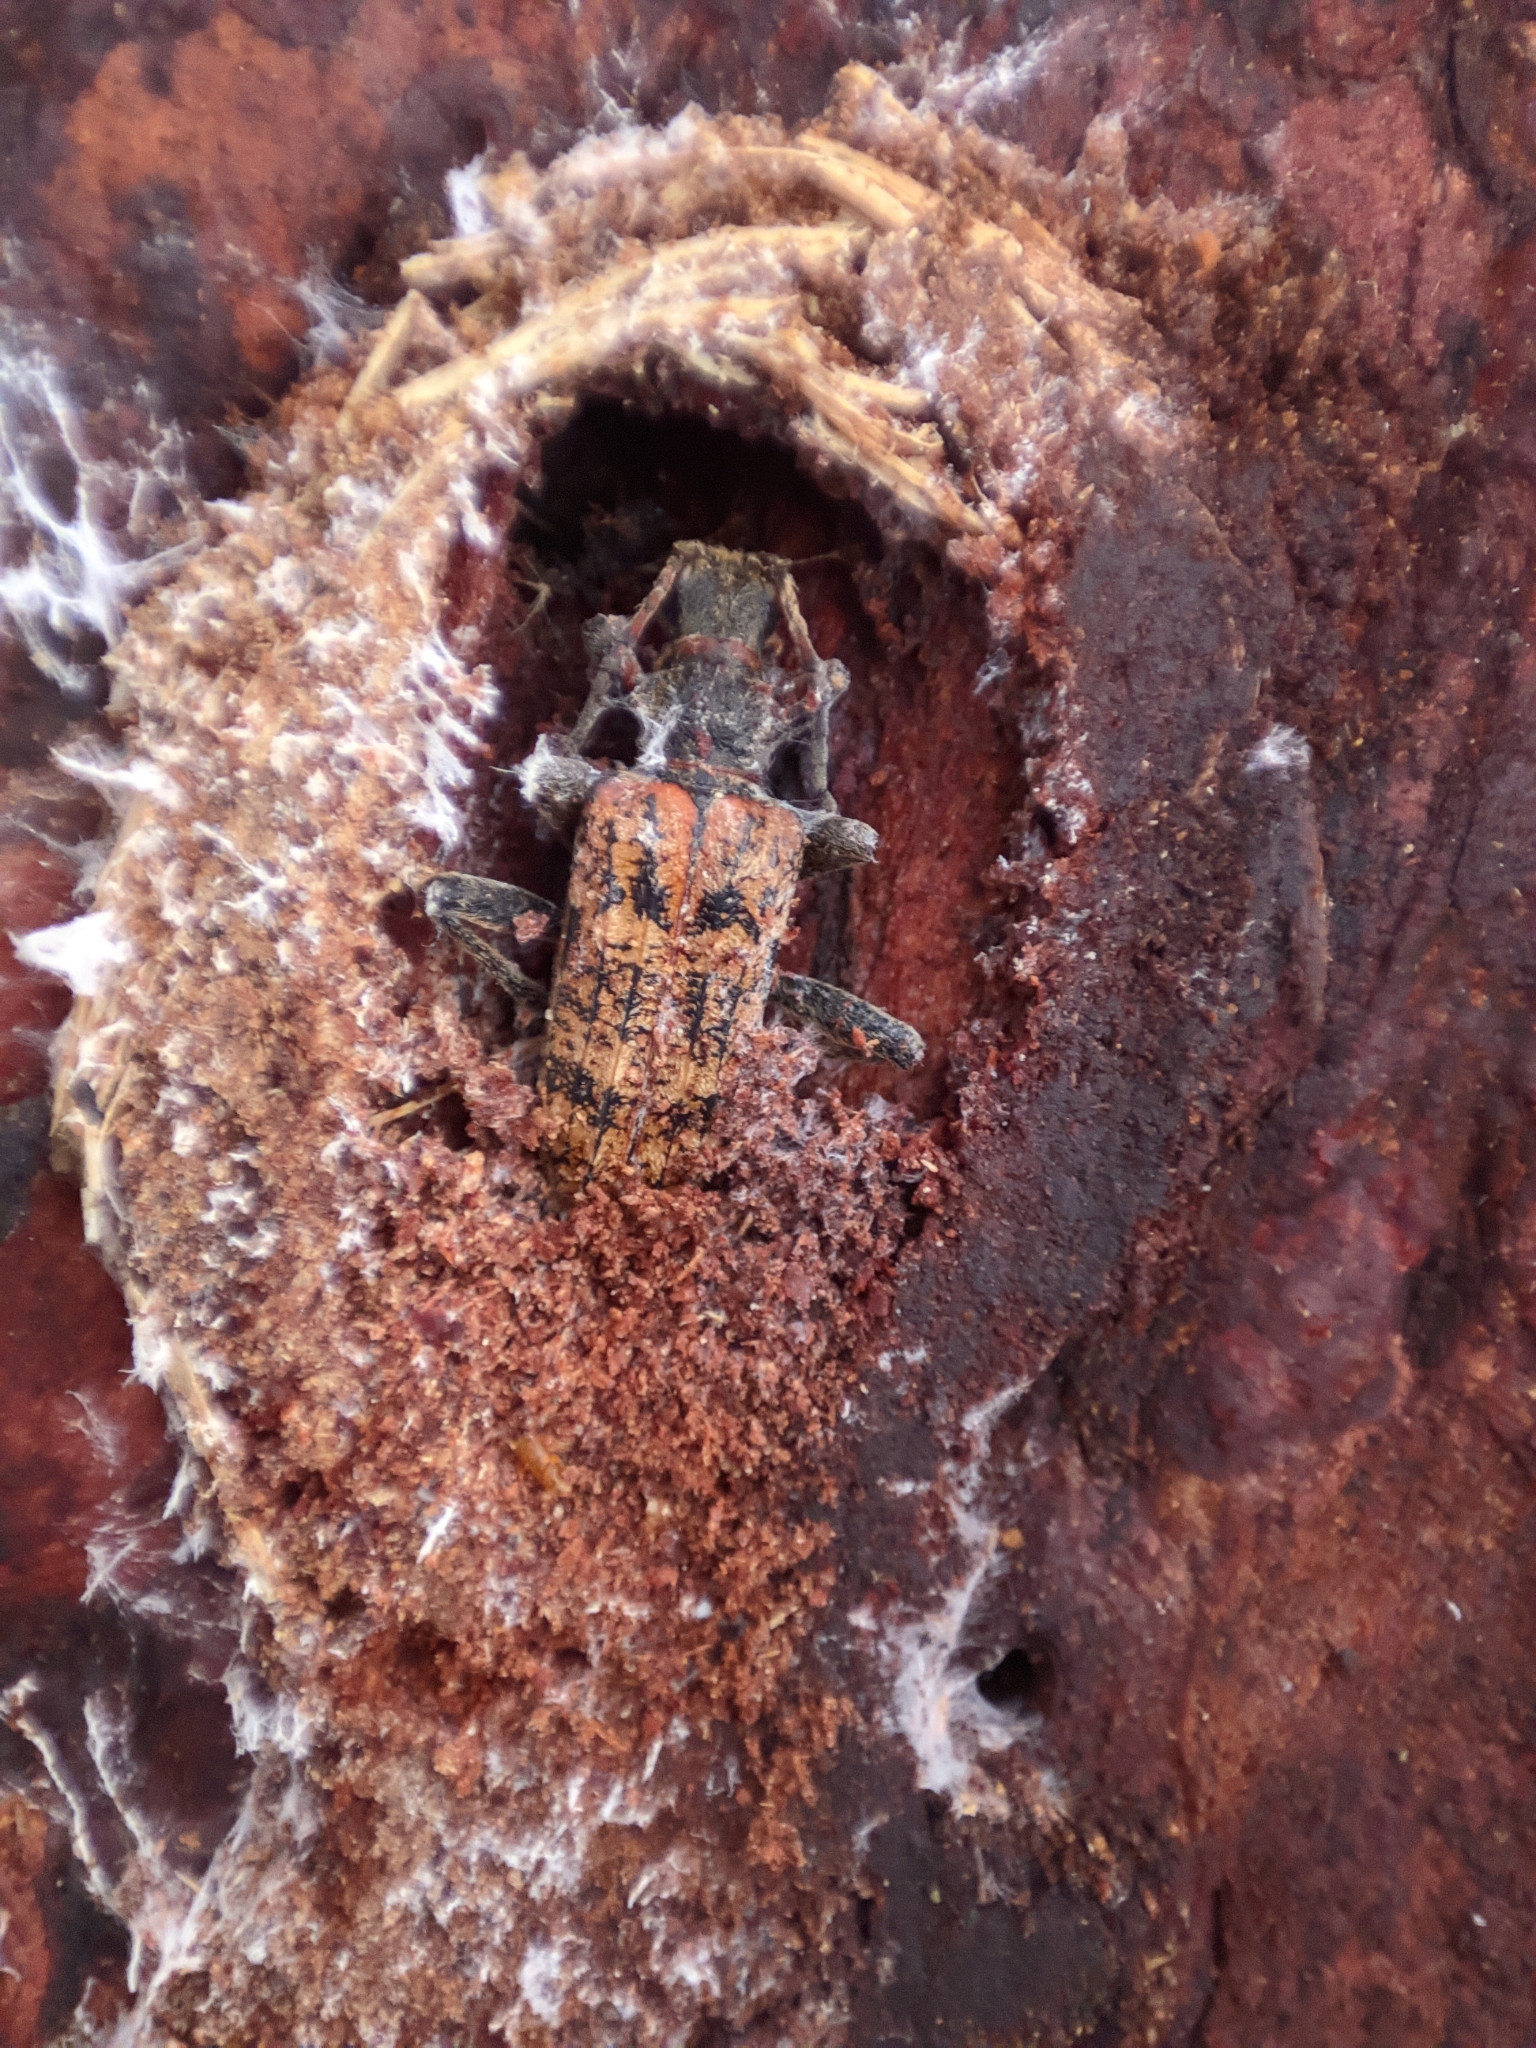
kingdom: Animalia
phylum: Arthropoda
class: Insecta
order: Coleoptera
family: Cerambycidae
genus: Rhagium
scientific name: Rhagium inquisitor
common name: Ribbed pine borer
